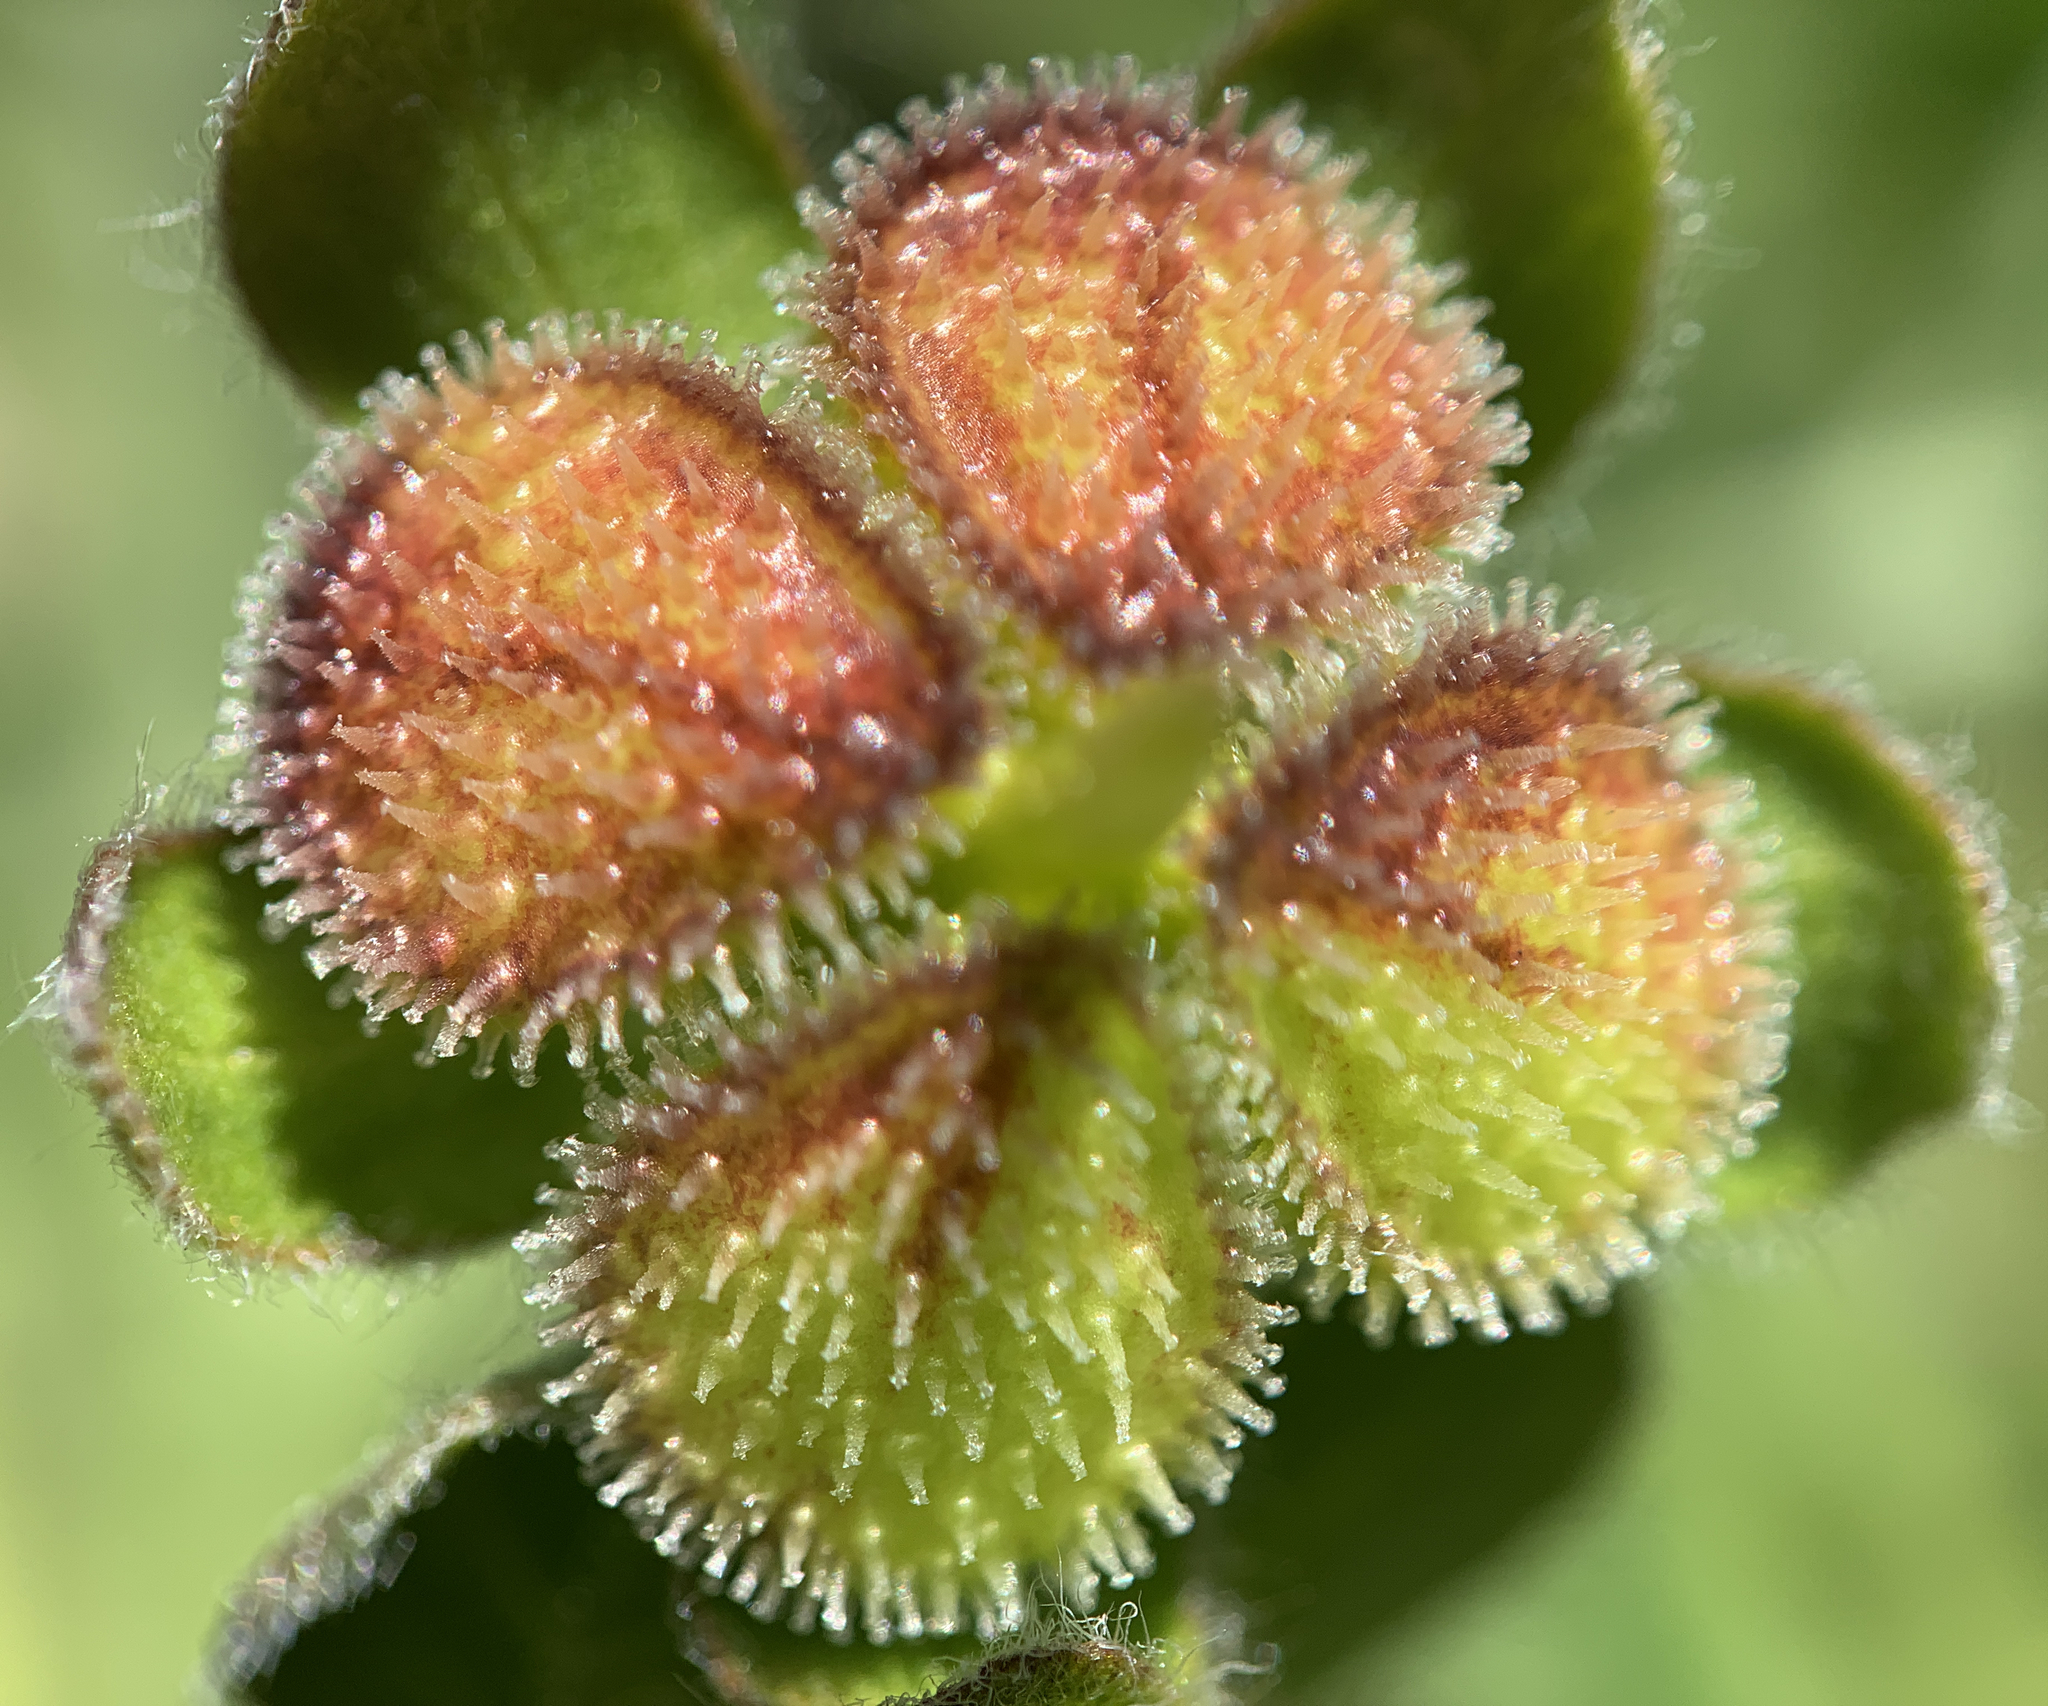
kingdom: Plantae
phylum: Tracheophyta
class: Magnoliopsida
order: Boraginales
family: Boraginaceae
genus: Cynoglossum
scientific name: Cynoglossum officinale
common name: Hound's-tongue
